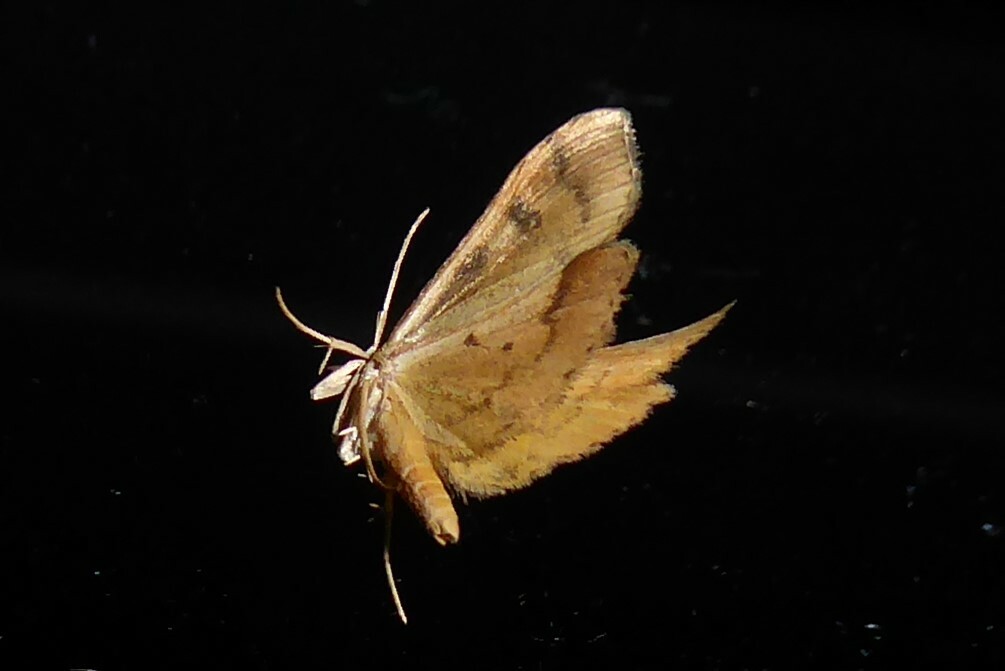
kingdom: Animalia
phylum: Arthropoda
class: Insecta
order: Lepidoptera
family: Crambidae
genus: Udea
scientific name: Udea Mnesictena flavidalis
